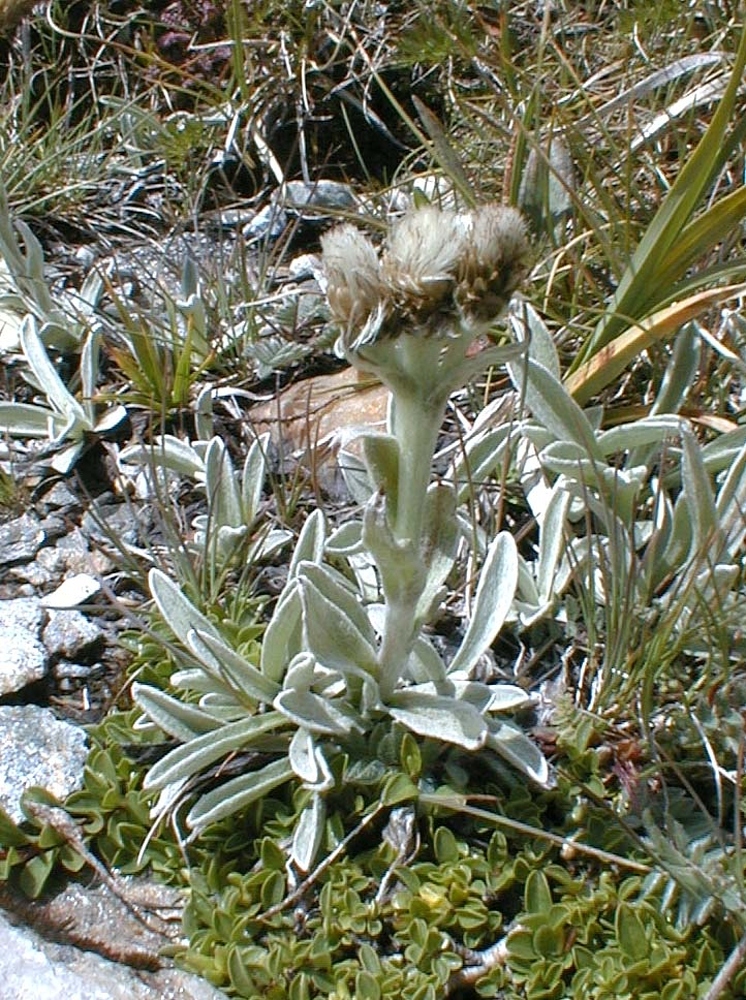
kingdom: Plantae
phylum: Tracheophyta
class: Magnoliopsida
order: Asterales
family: Asteraceae
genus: Antennaria
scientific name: Antennaria carpatica
